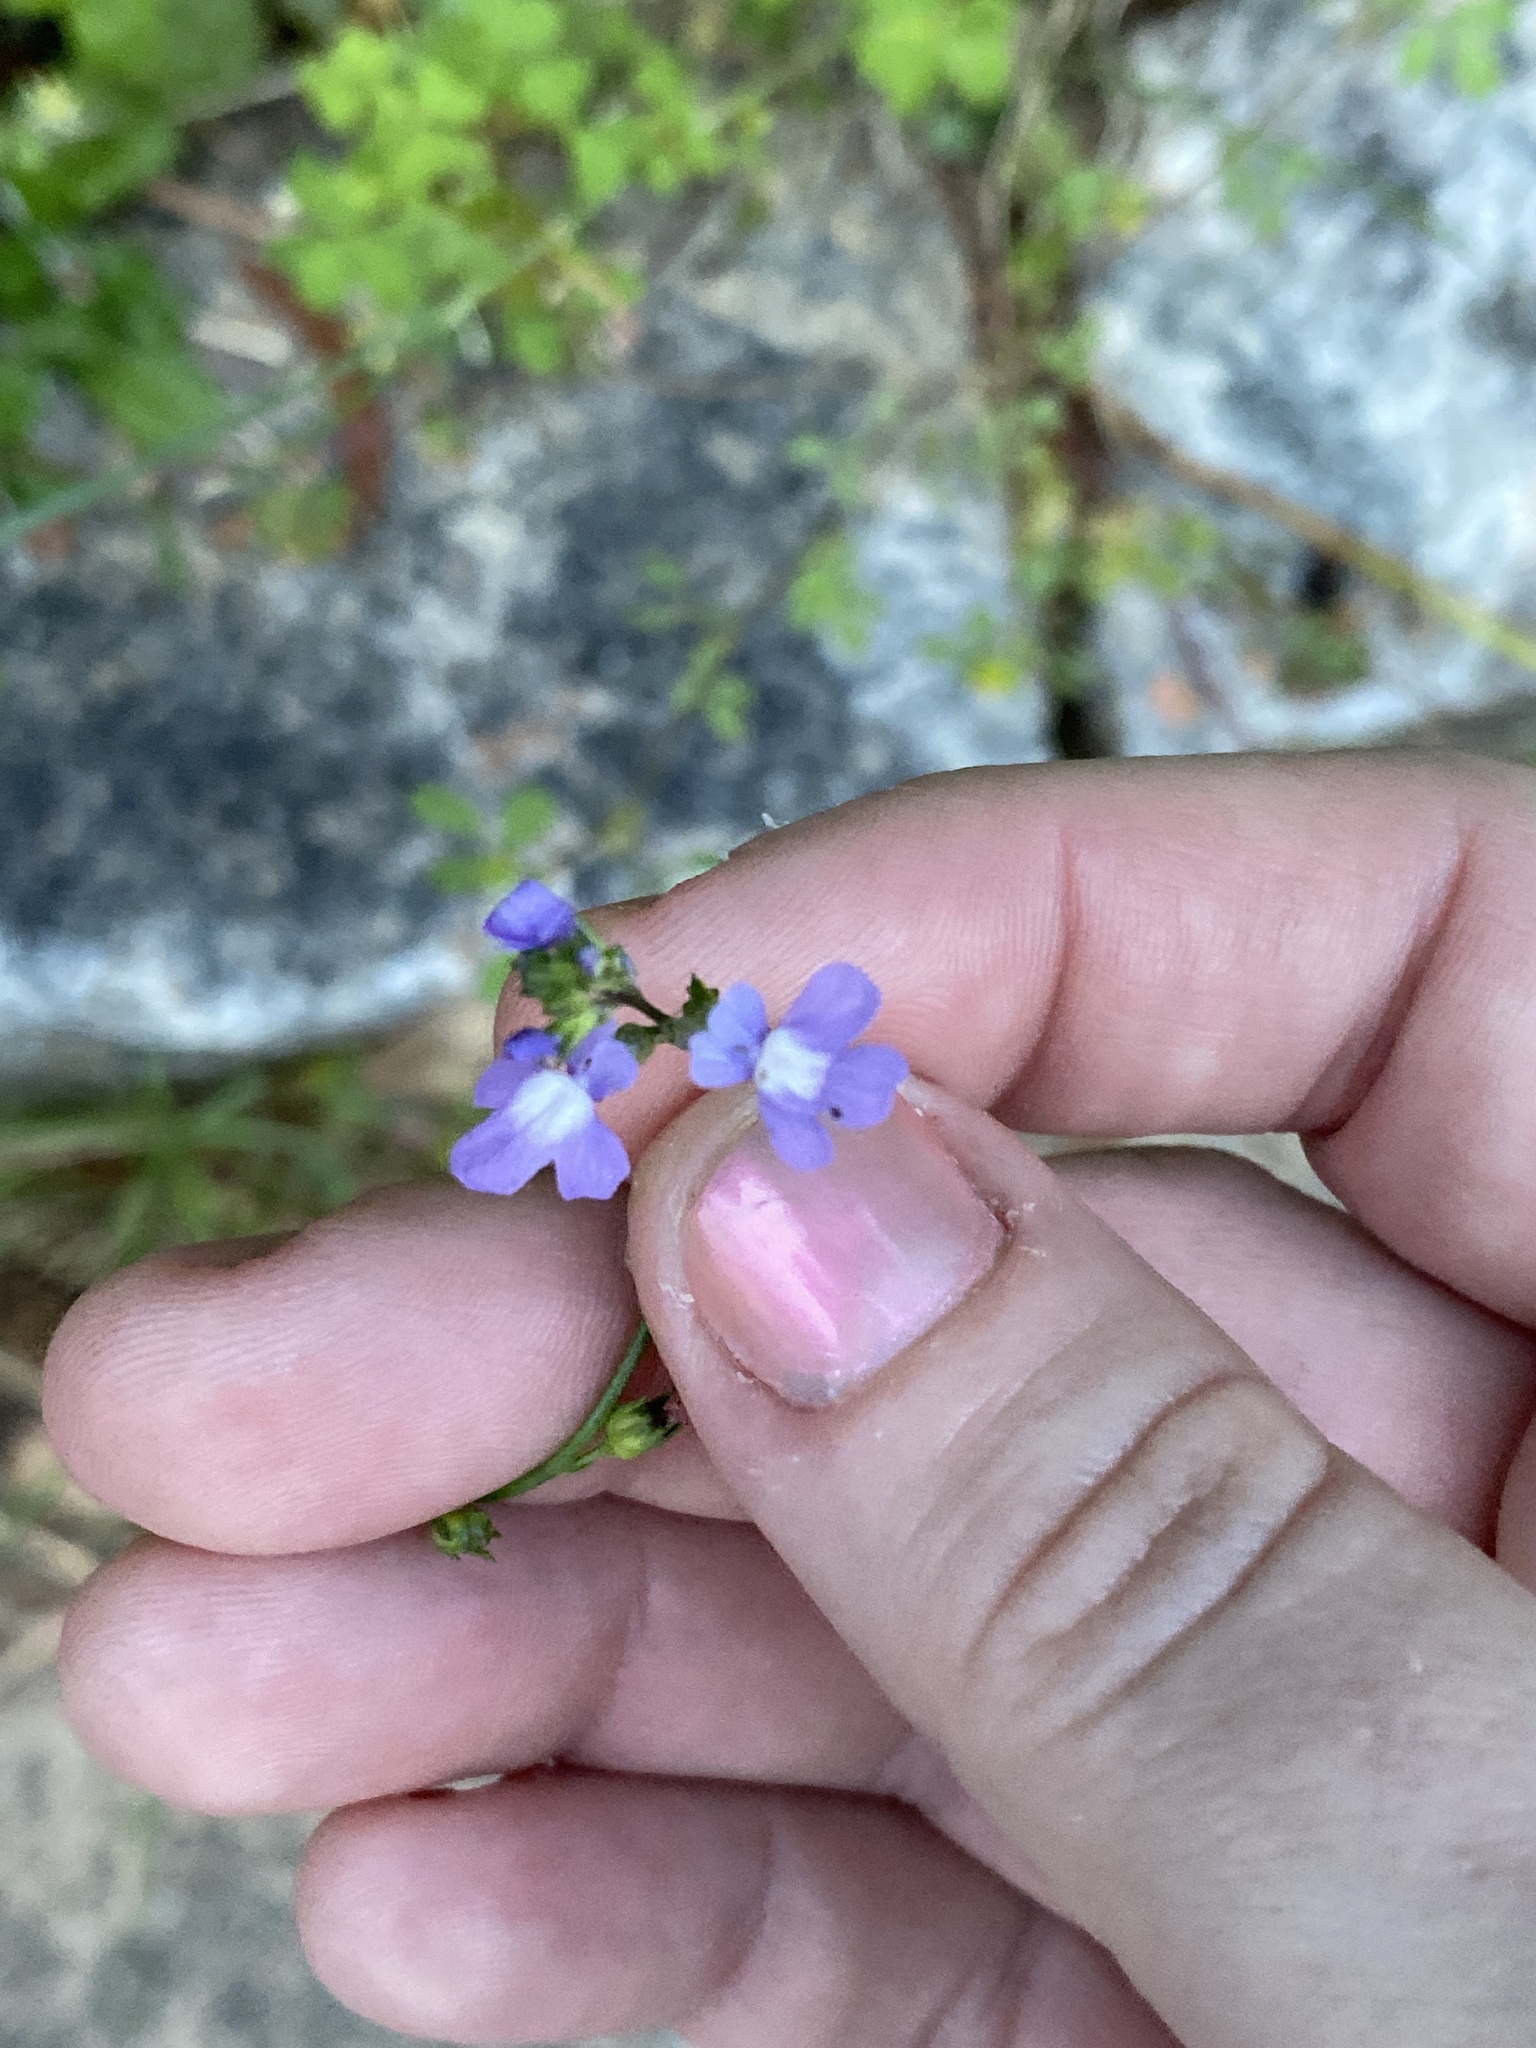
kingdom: Plantae
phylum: Tracheophyta
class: Magnoliopsida
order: Lamiales
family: Plantaginaceae
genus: Nuttallanthus
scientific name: Nuttallanthus canadensis
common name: Blue toadflax
